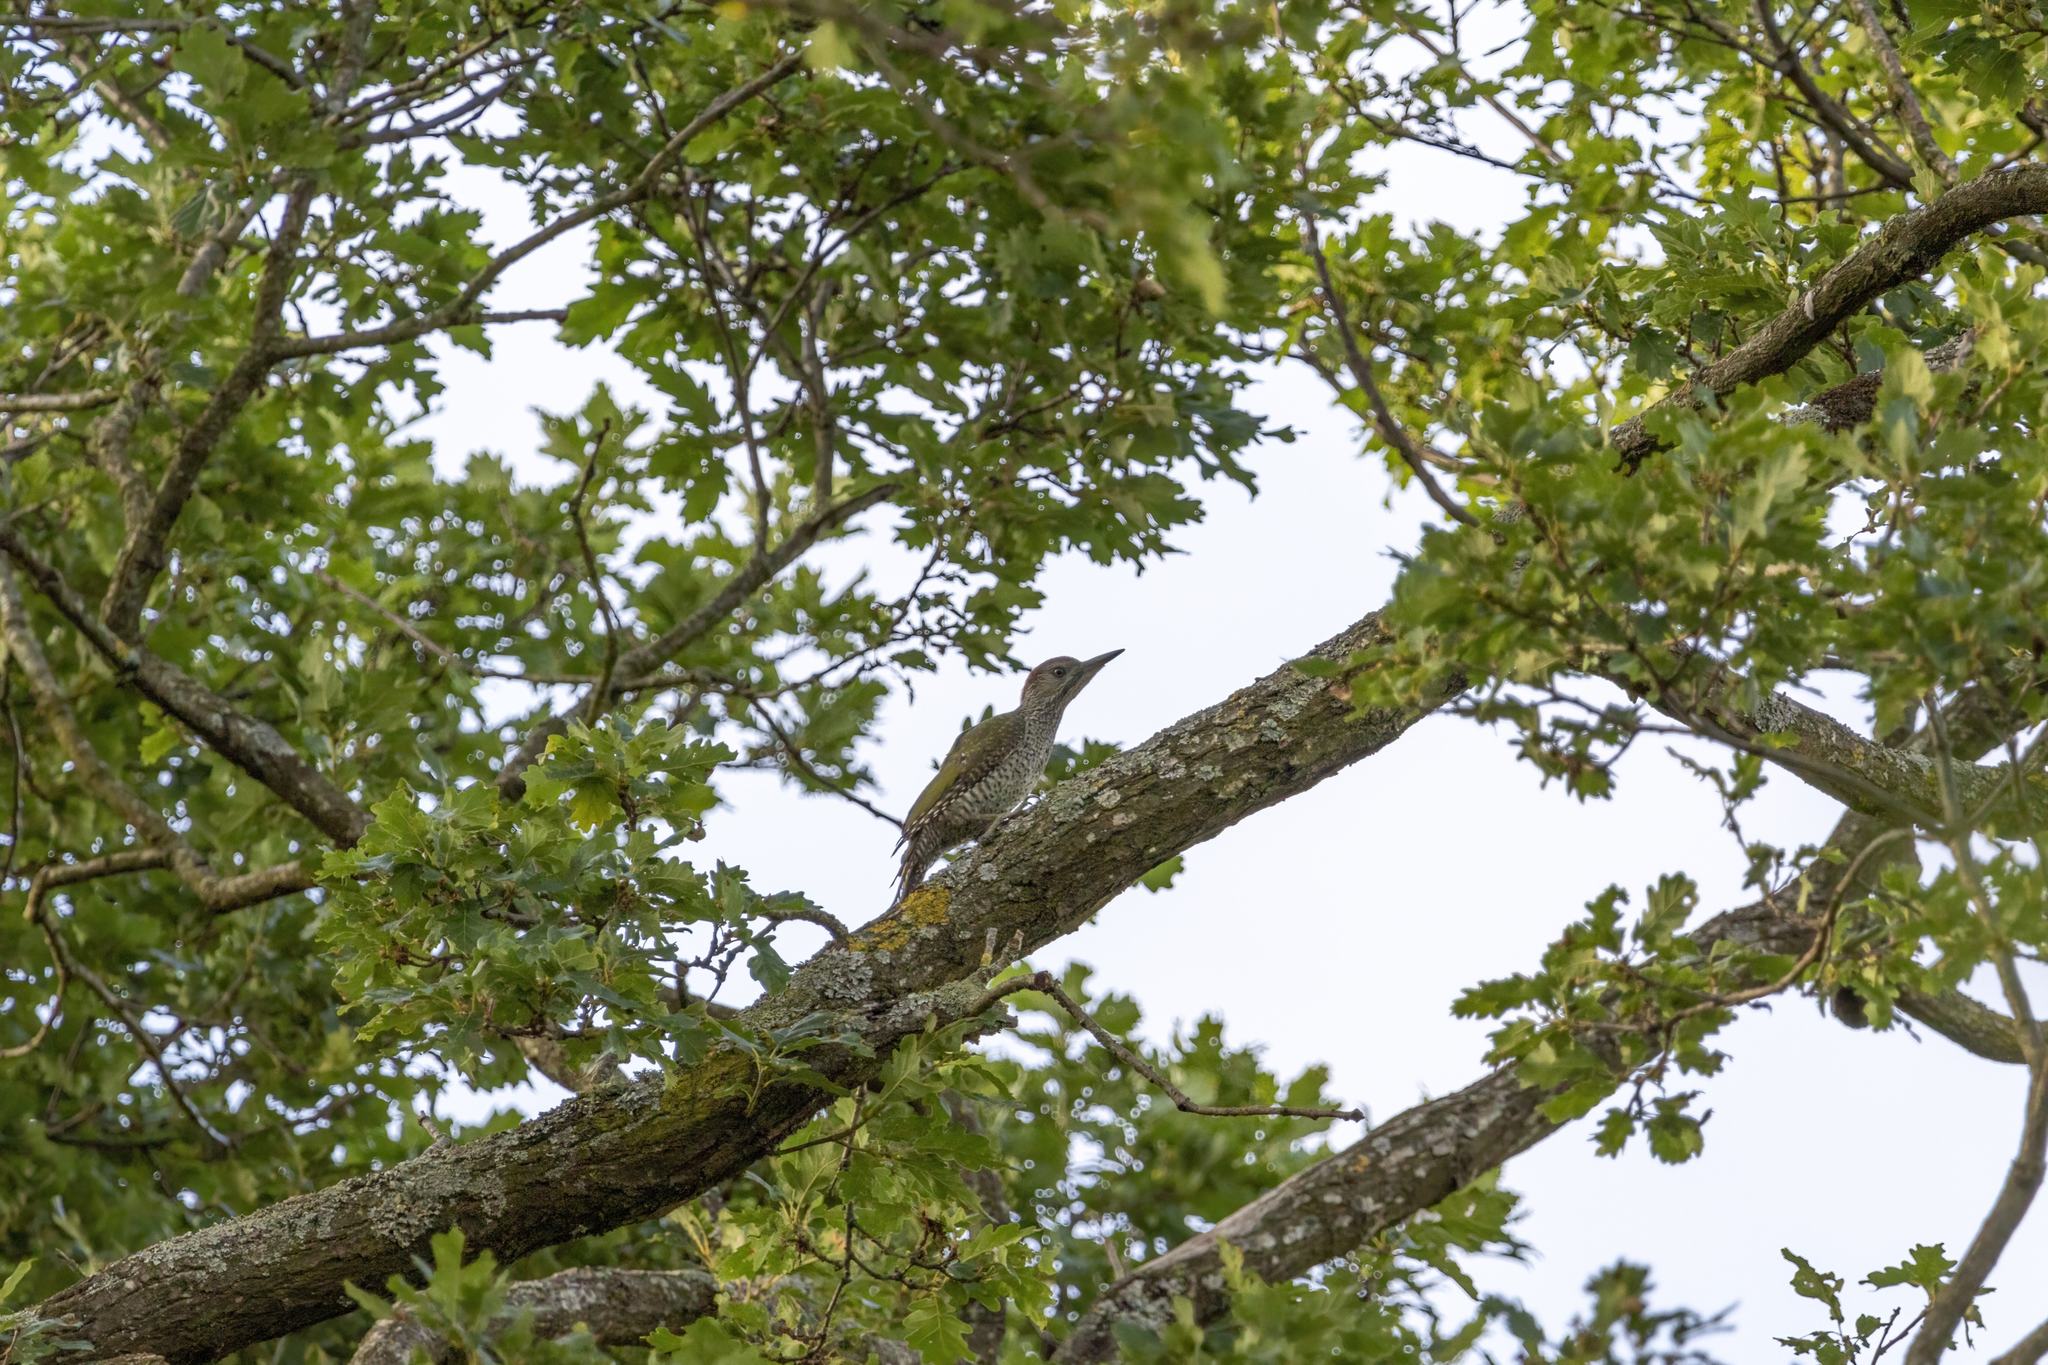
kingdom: Animalia
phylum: Chordata
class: Aves
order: Piciformes
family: Picidae
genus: Picus
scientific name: Picus viridis
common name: European green woodpecker
